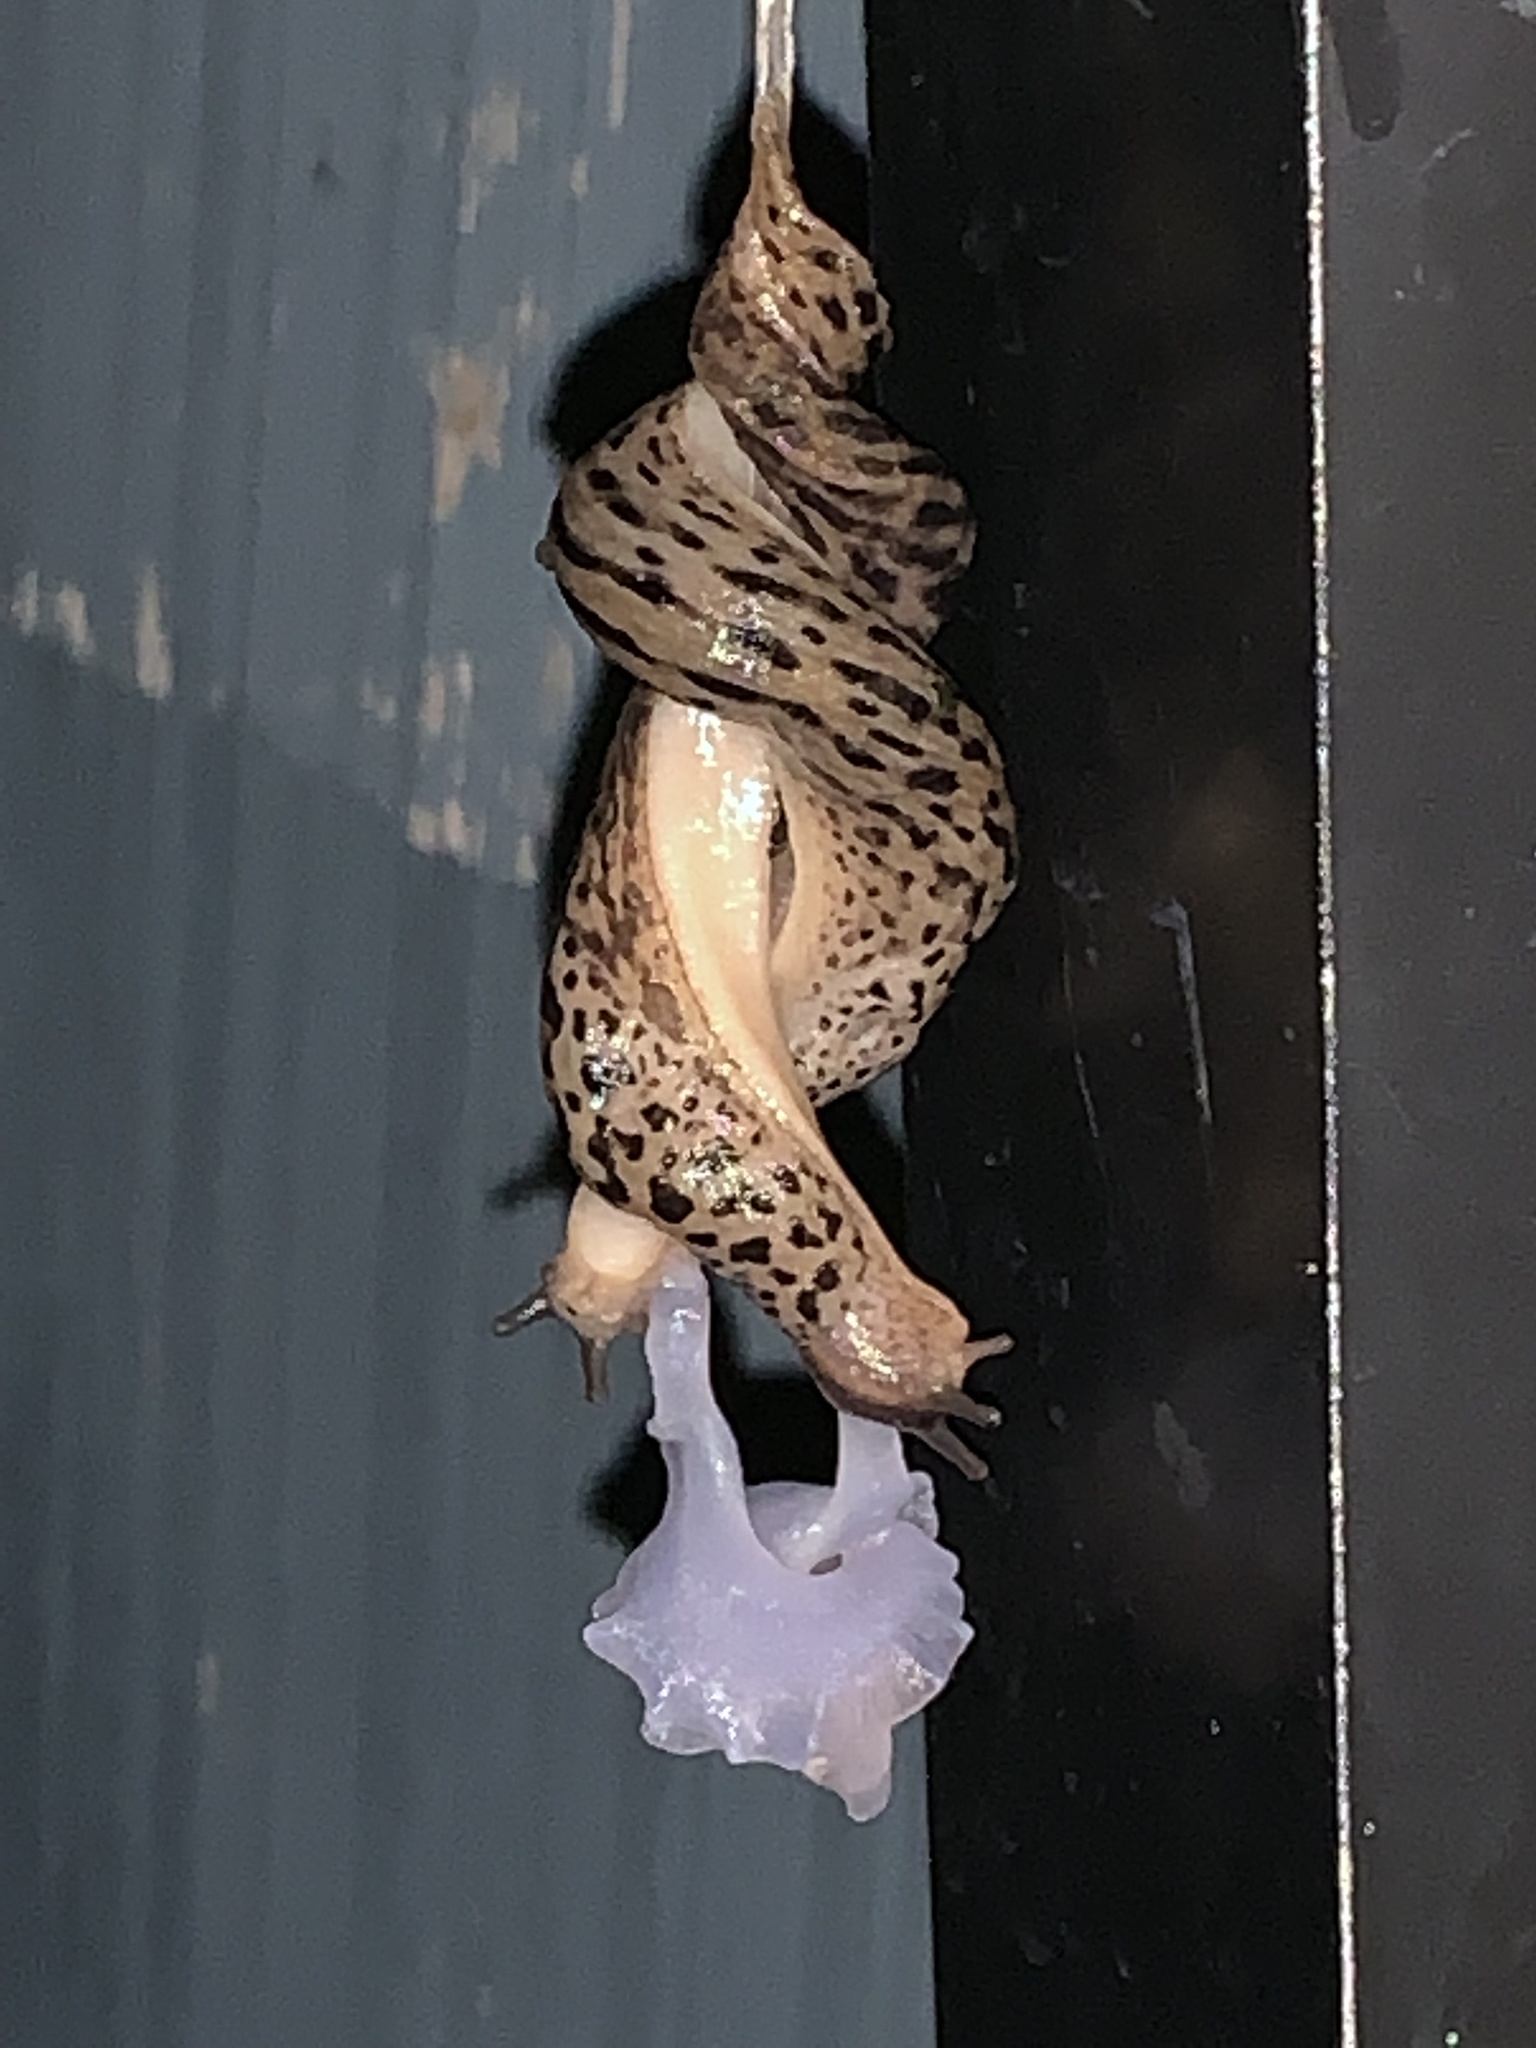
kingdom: Animalia
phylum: Mollusca
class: Gastropoda
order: Stylommatophora
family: Limacidae
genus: Limax
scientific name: Limax maximus
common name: Great grey slug
